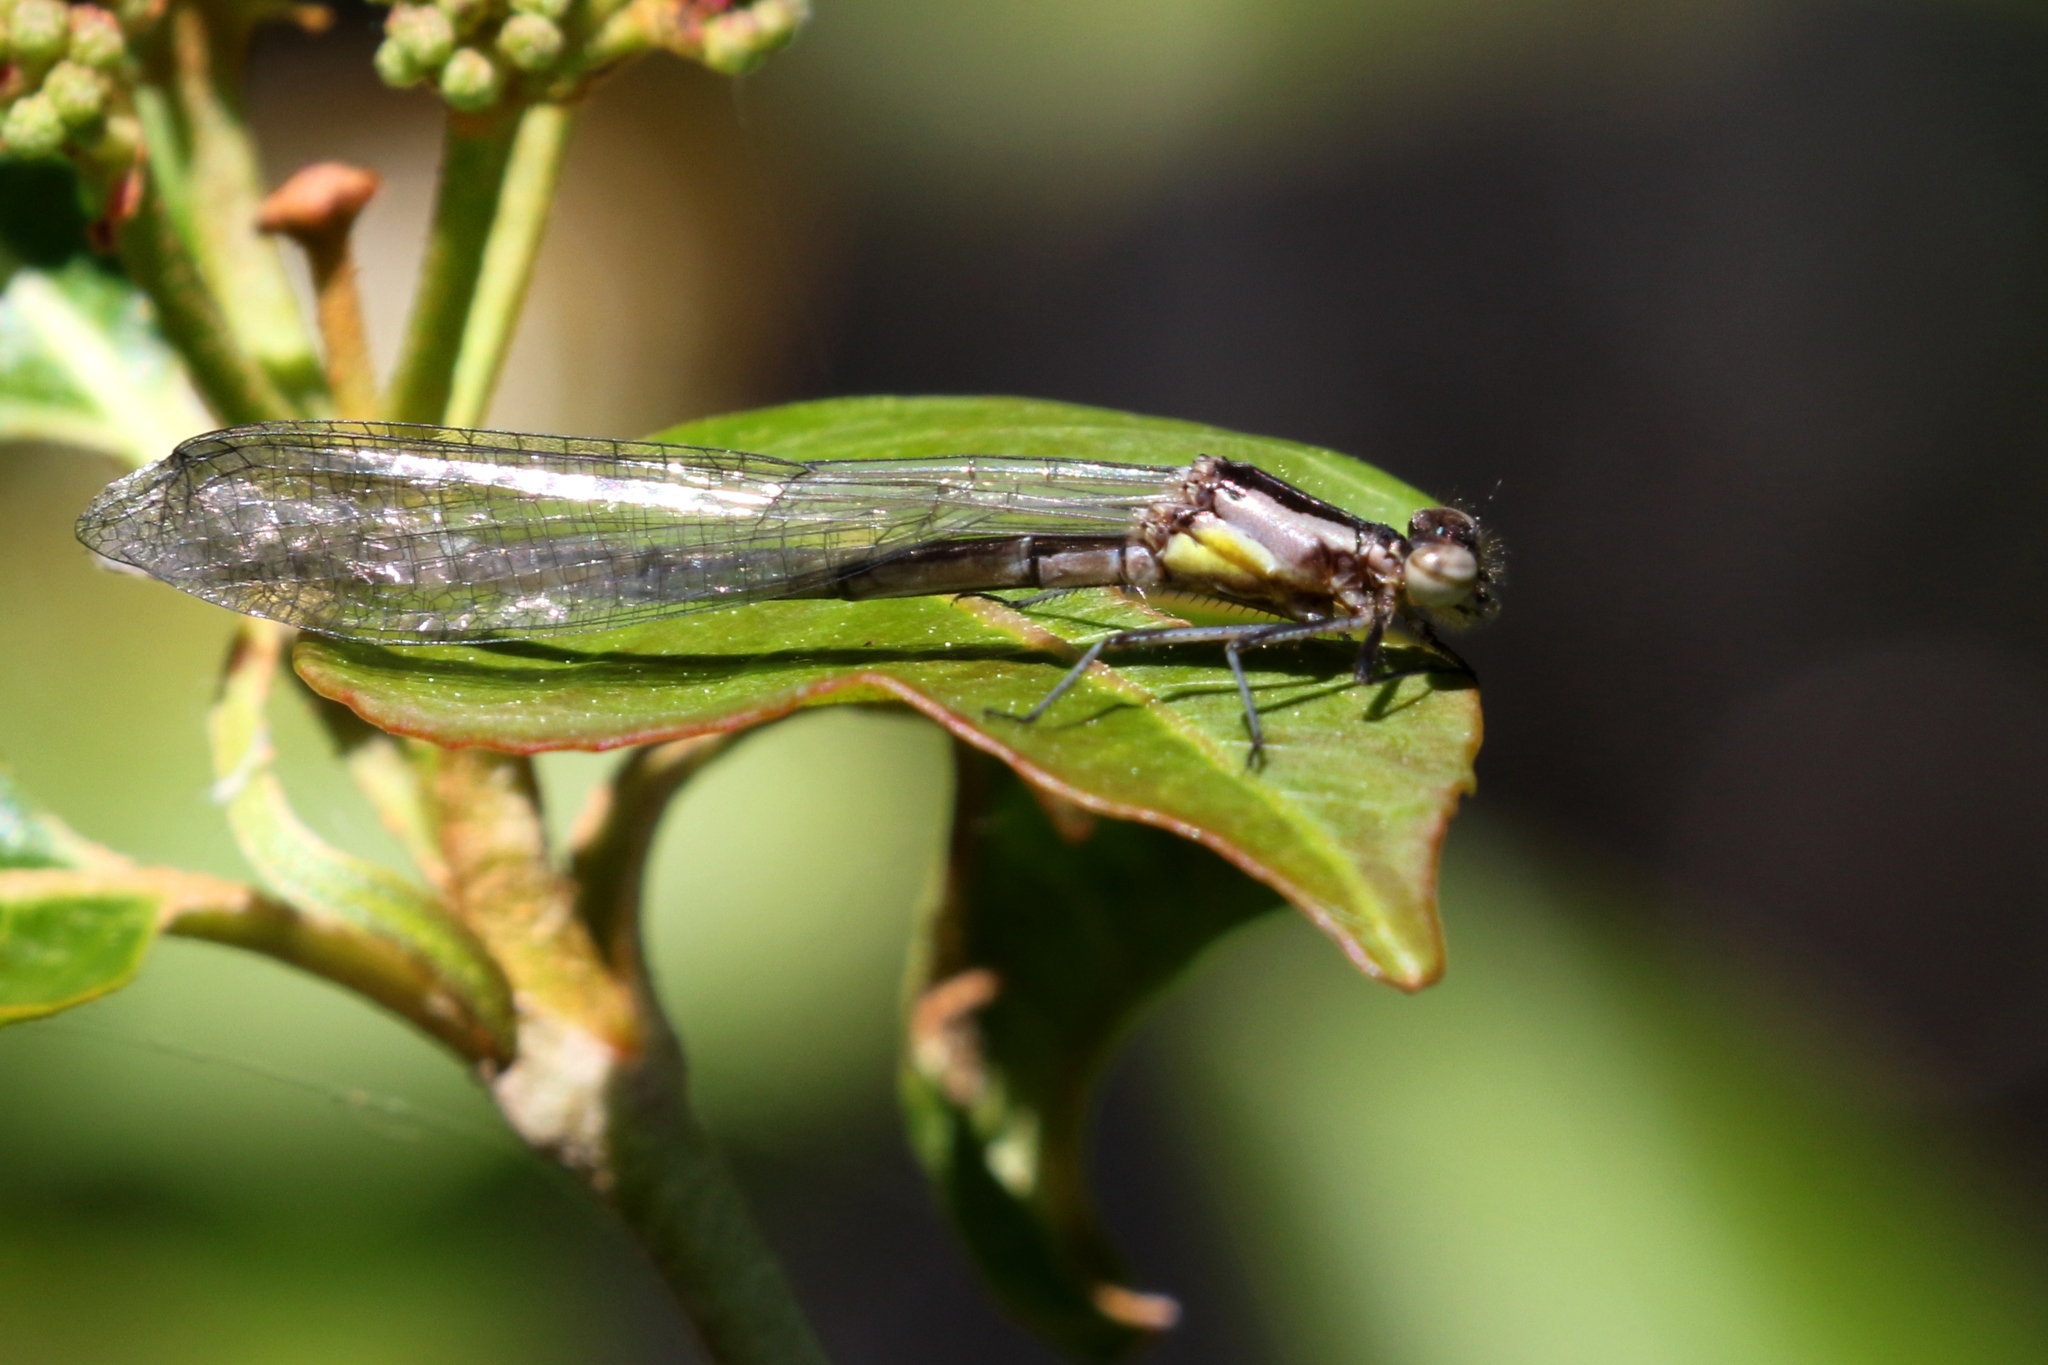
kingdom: Animalia
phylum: Arthropoda
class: Insecta
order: Odonata
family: Coenagrionidae
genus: Chromagrion
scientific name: Chromagrion conditum
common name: Aurora damsel
